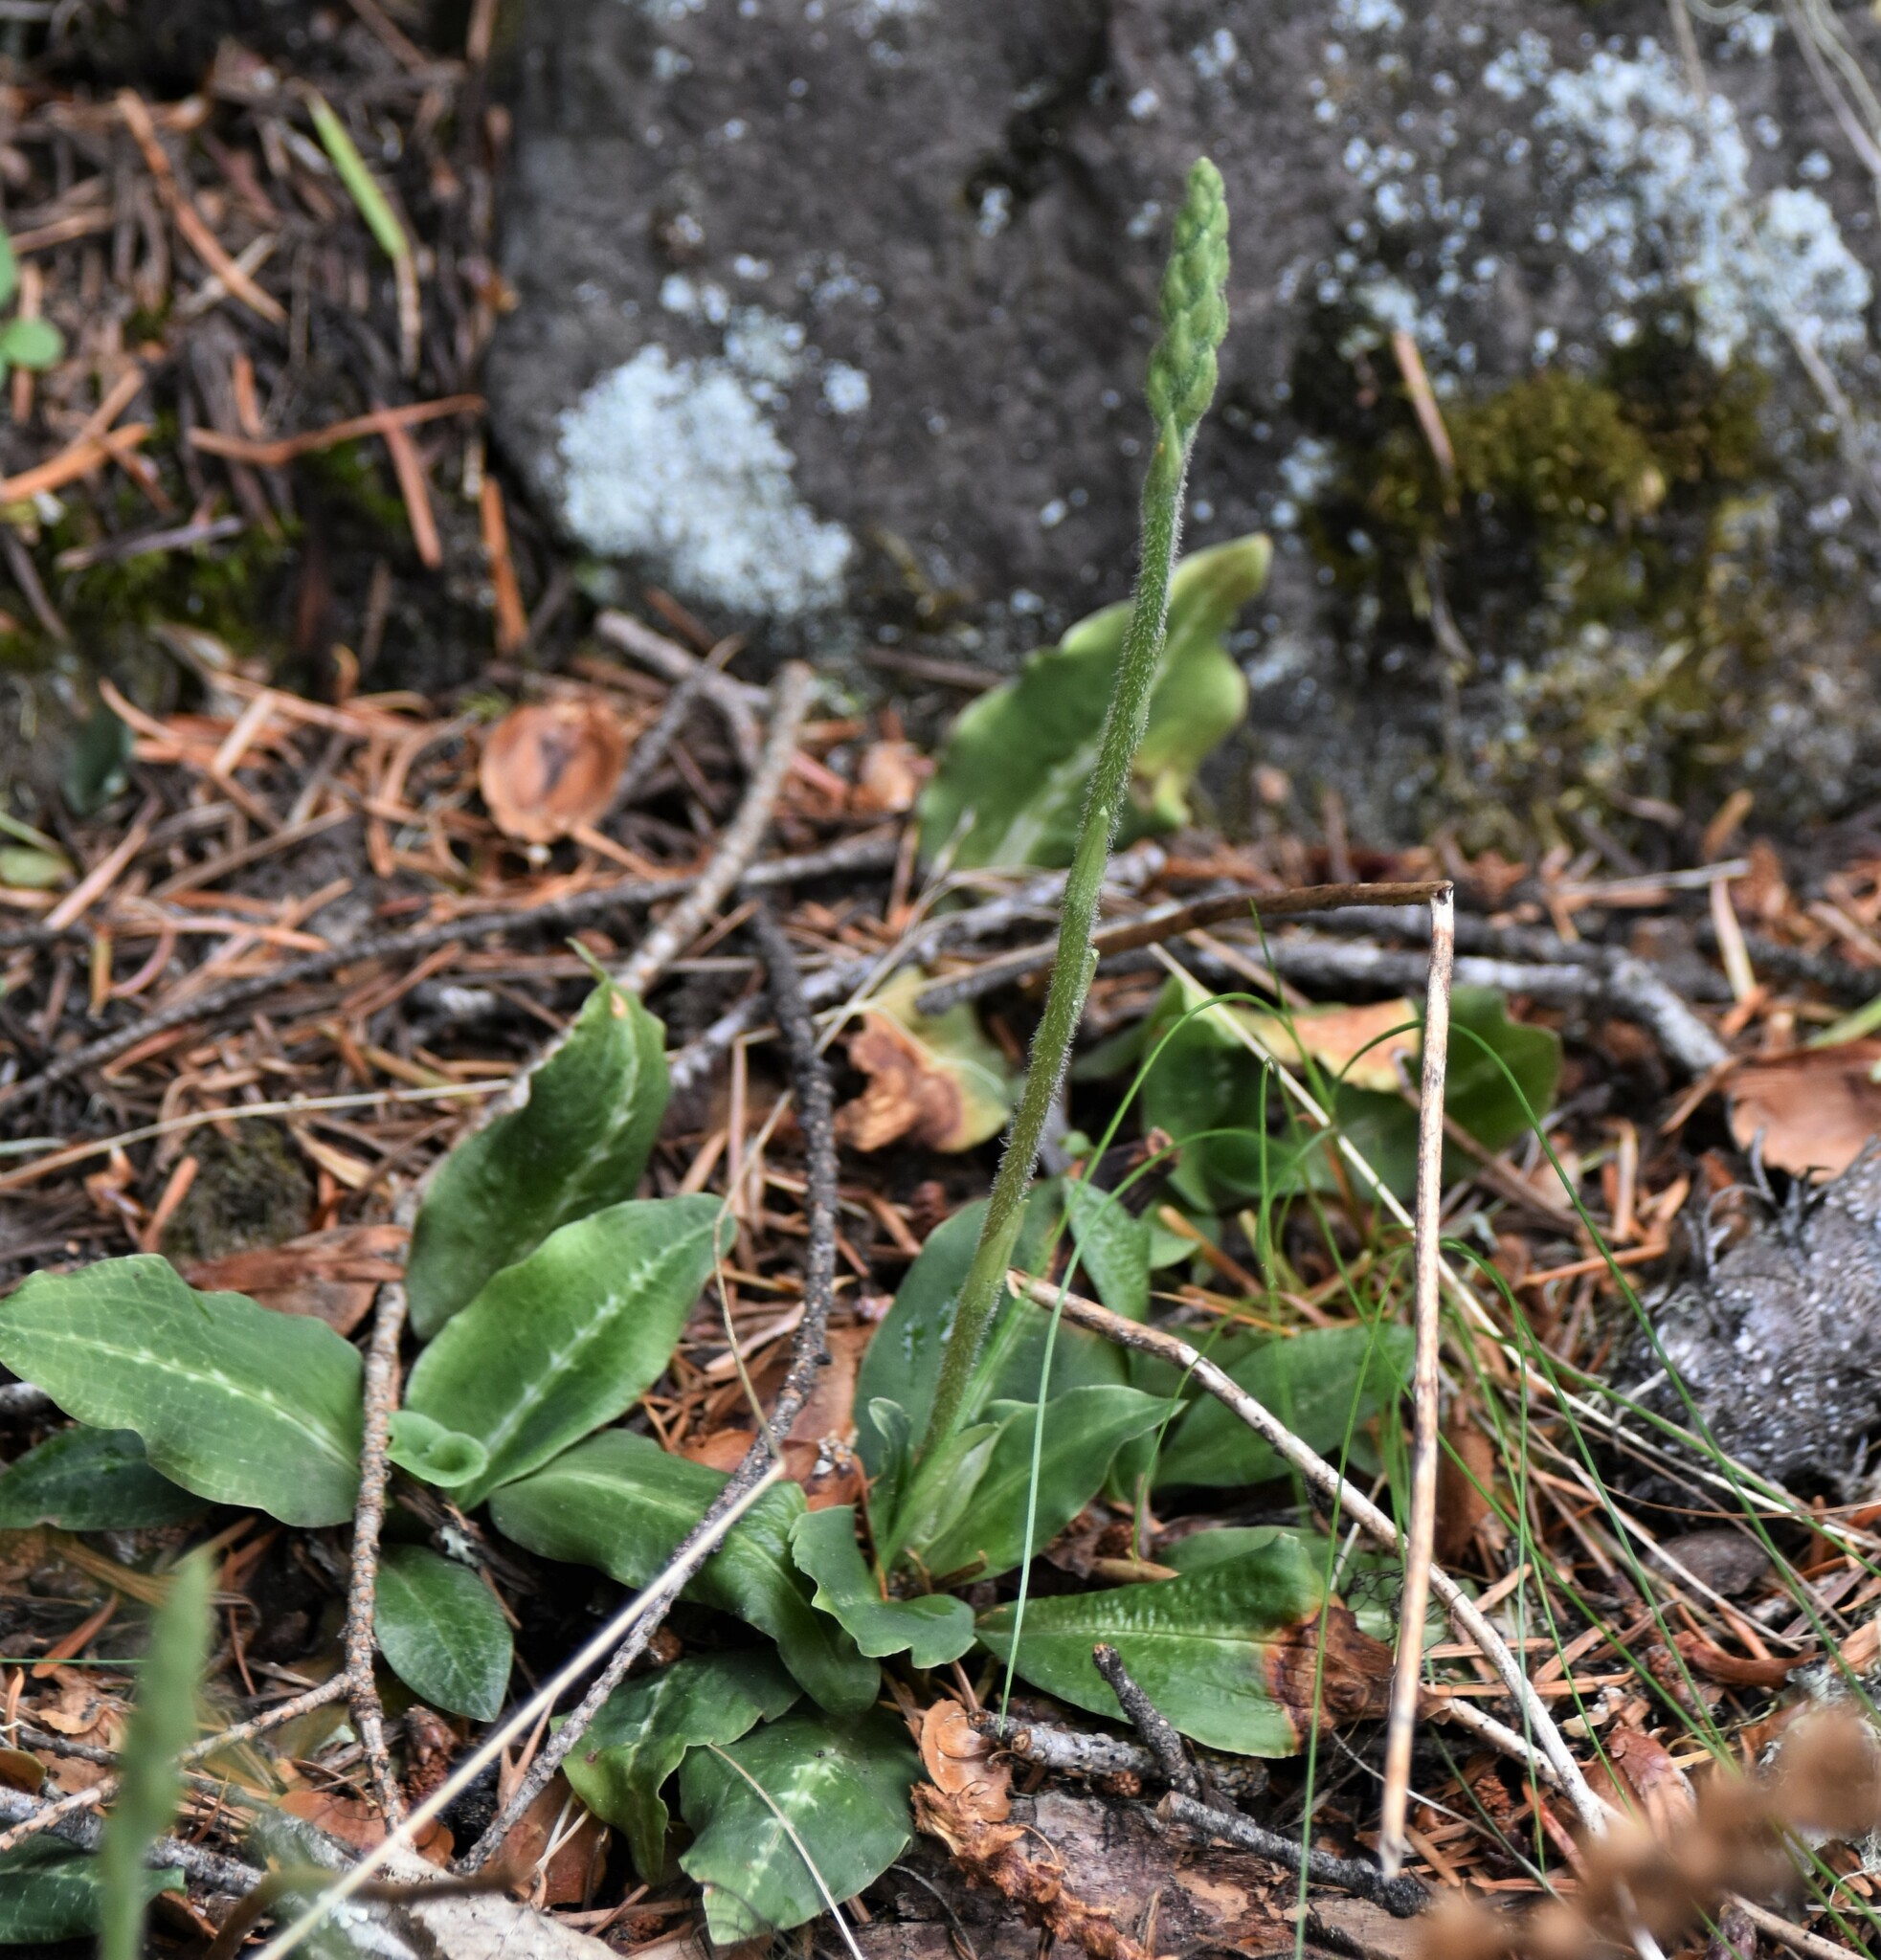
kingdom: Plantae
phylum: Tracheophyta
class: Liliopsida
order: Asparagales
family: Orchidaceae
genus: Goodyera
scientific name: Goodyera oblongifolia
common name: Giant rattlesnake-plantain
